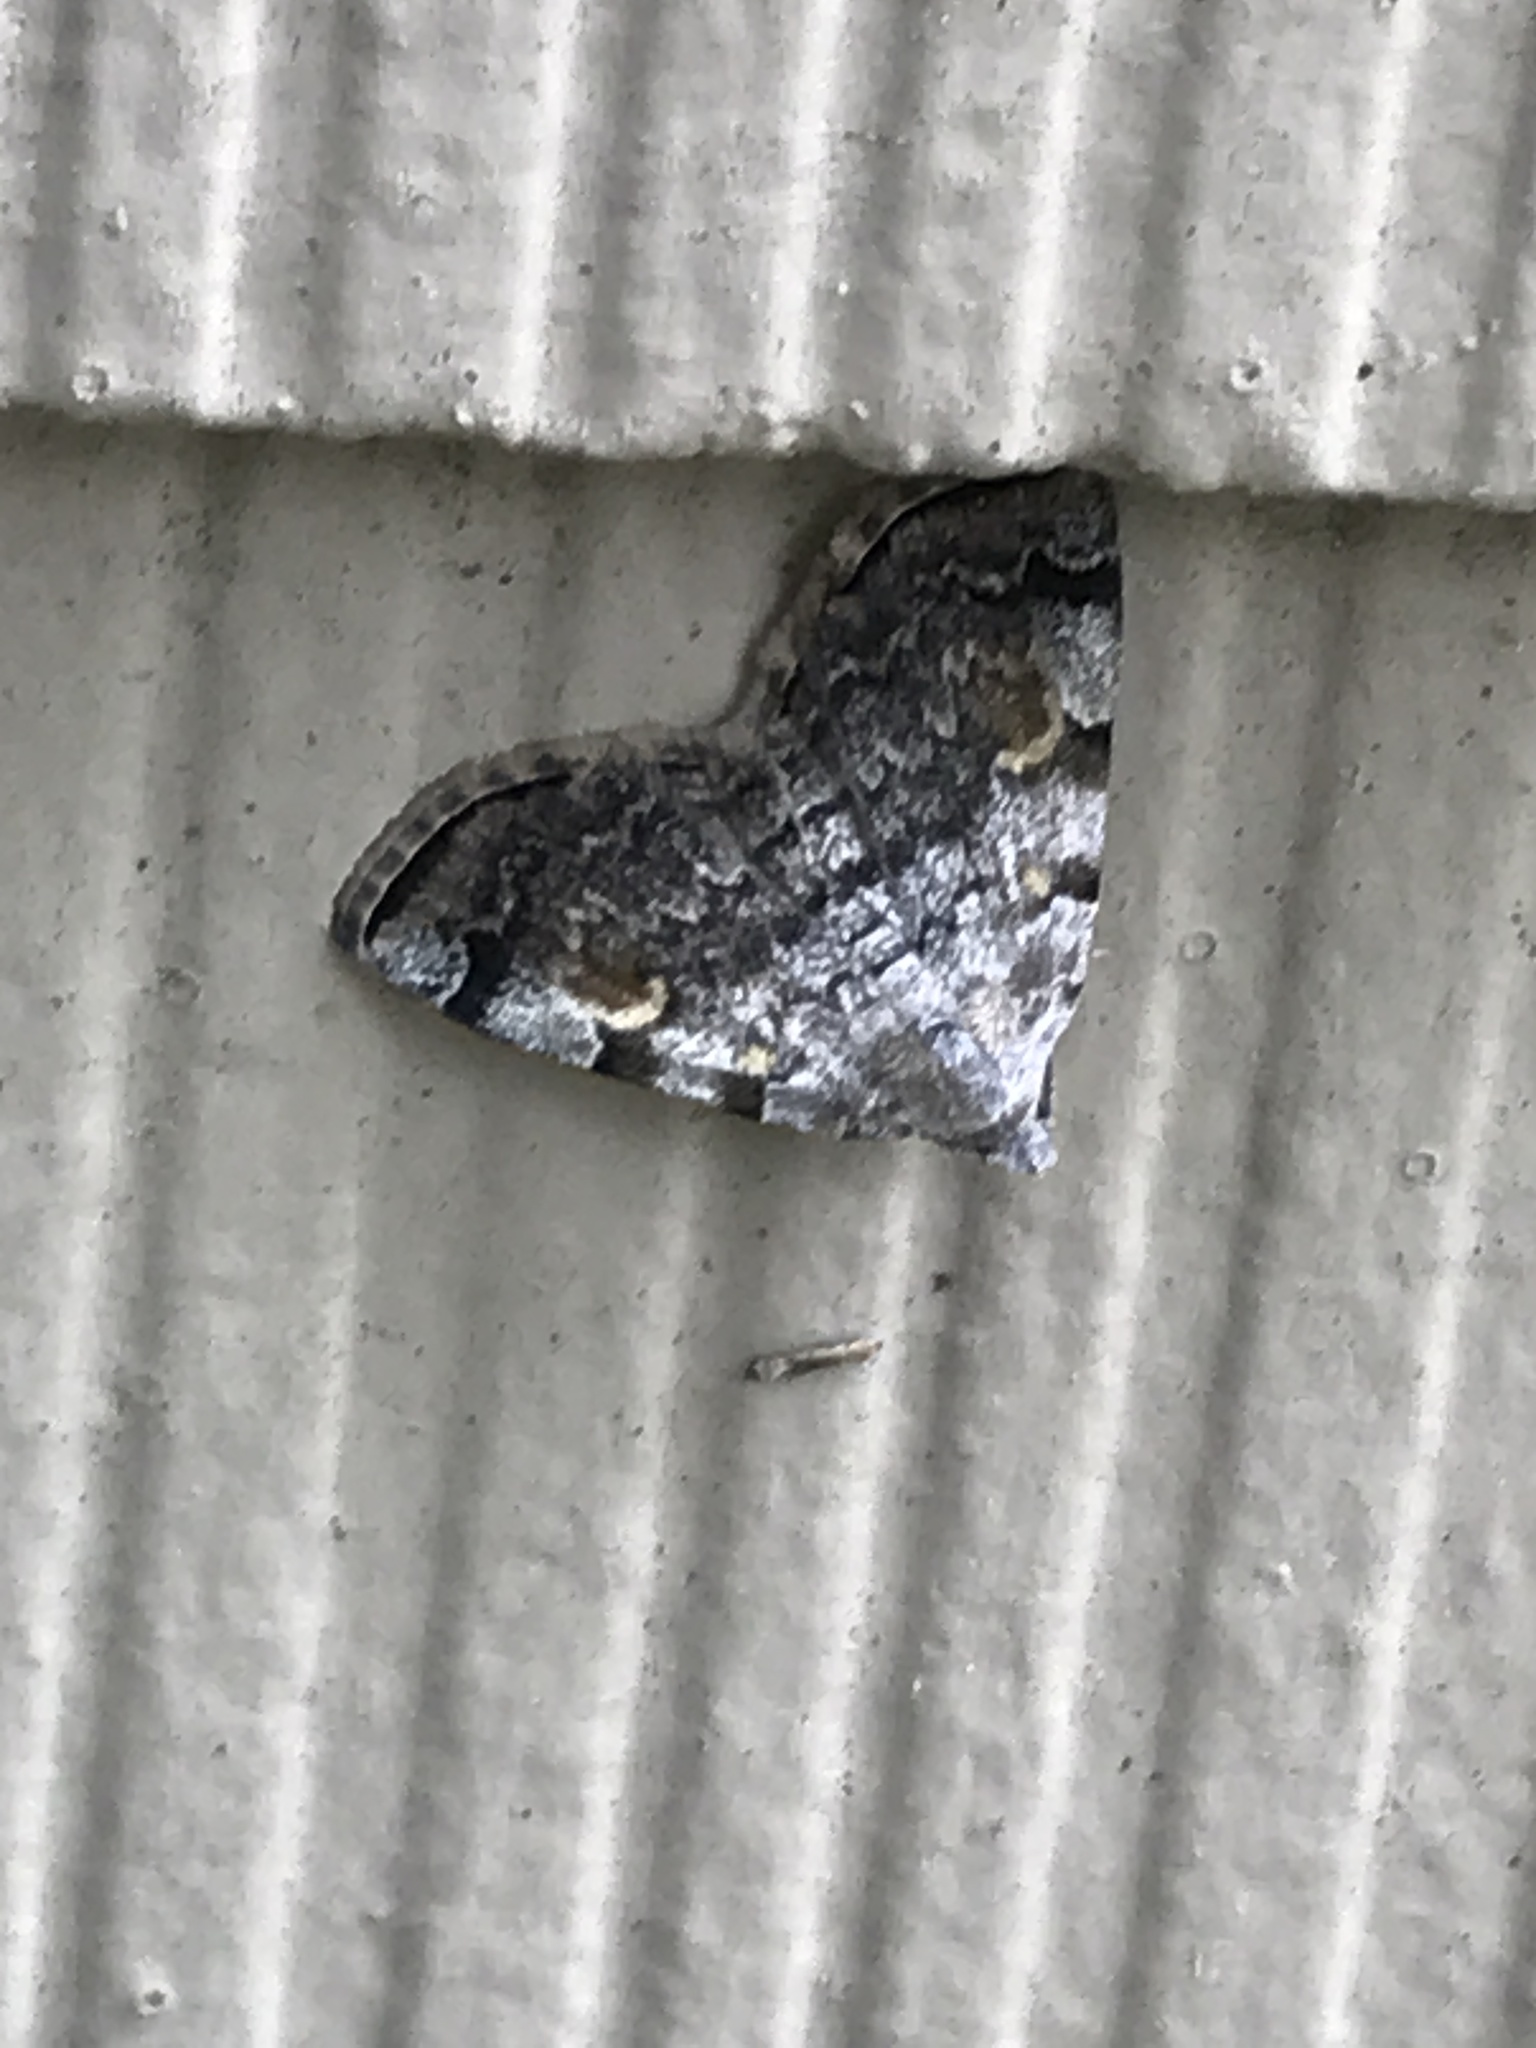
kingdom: Animalia
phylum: Arthropoda
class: Insecta
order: Lepidoptera
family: Erebidae
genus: Idia
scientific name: Idia americalis
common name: American idia moth
